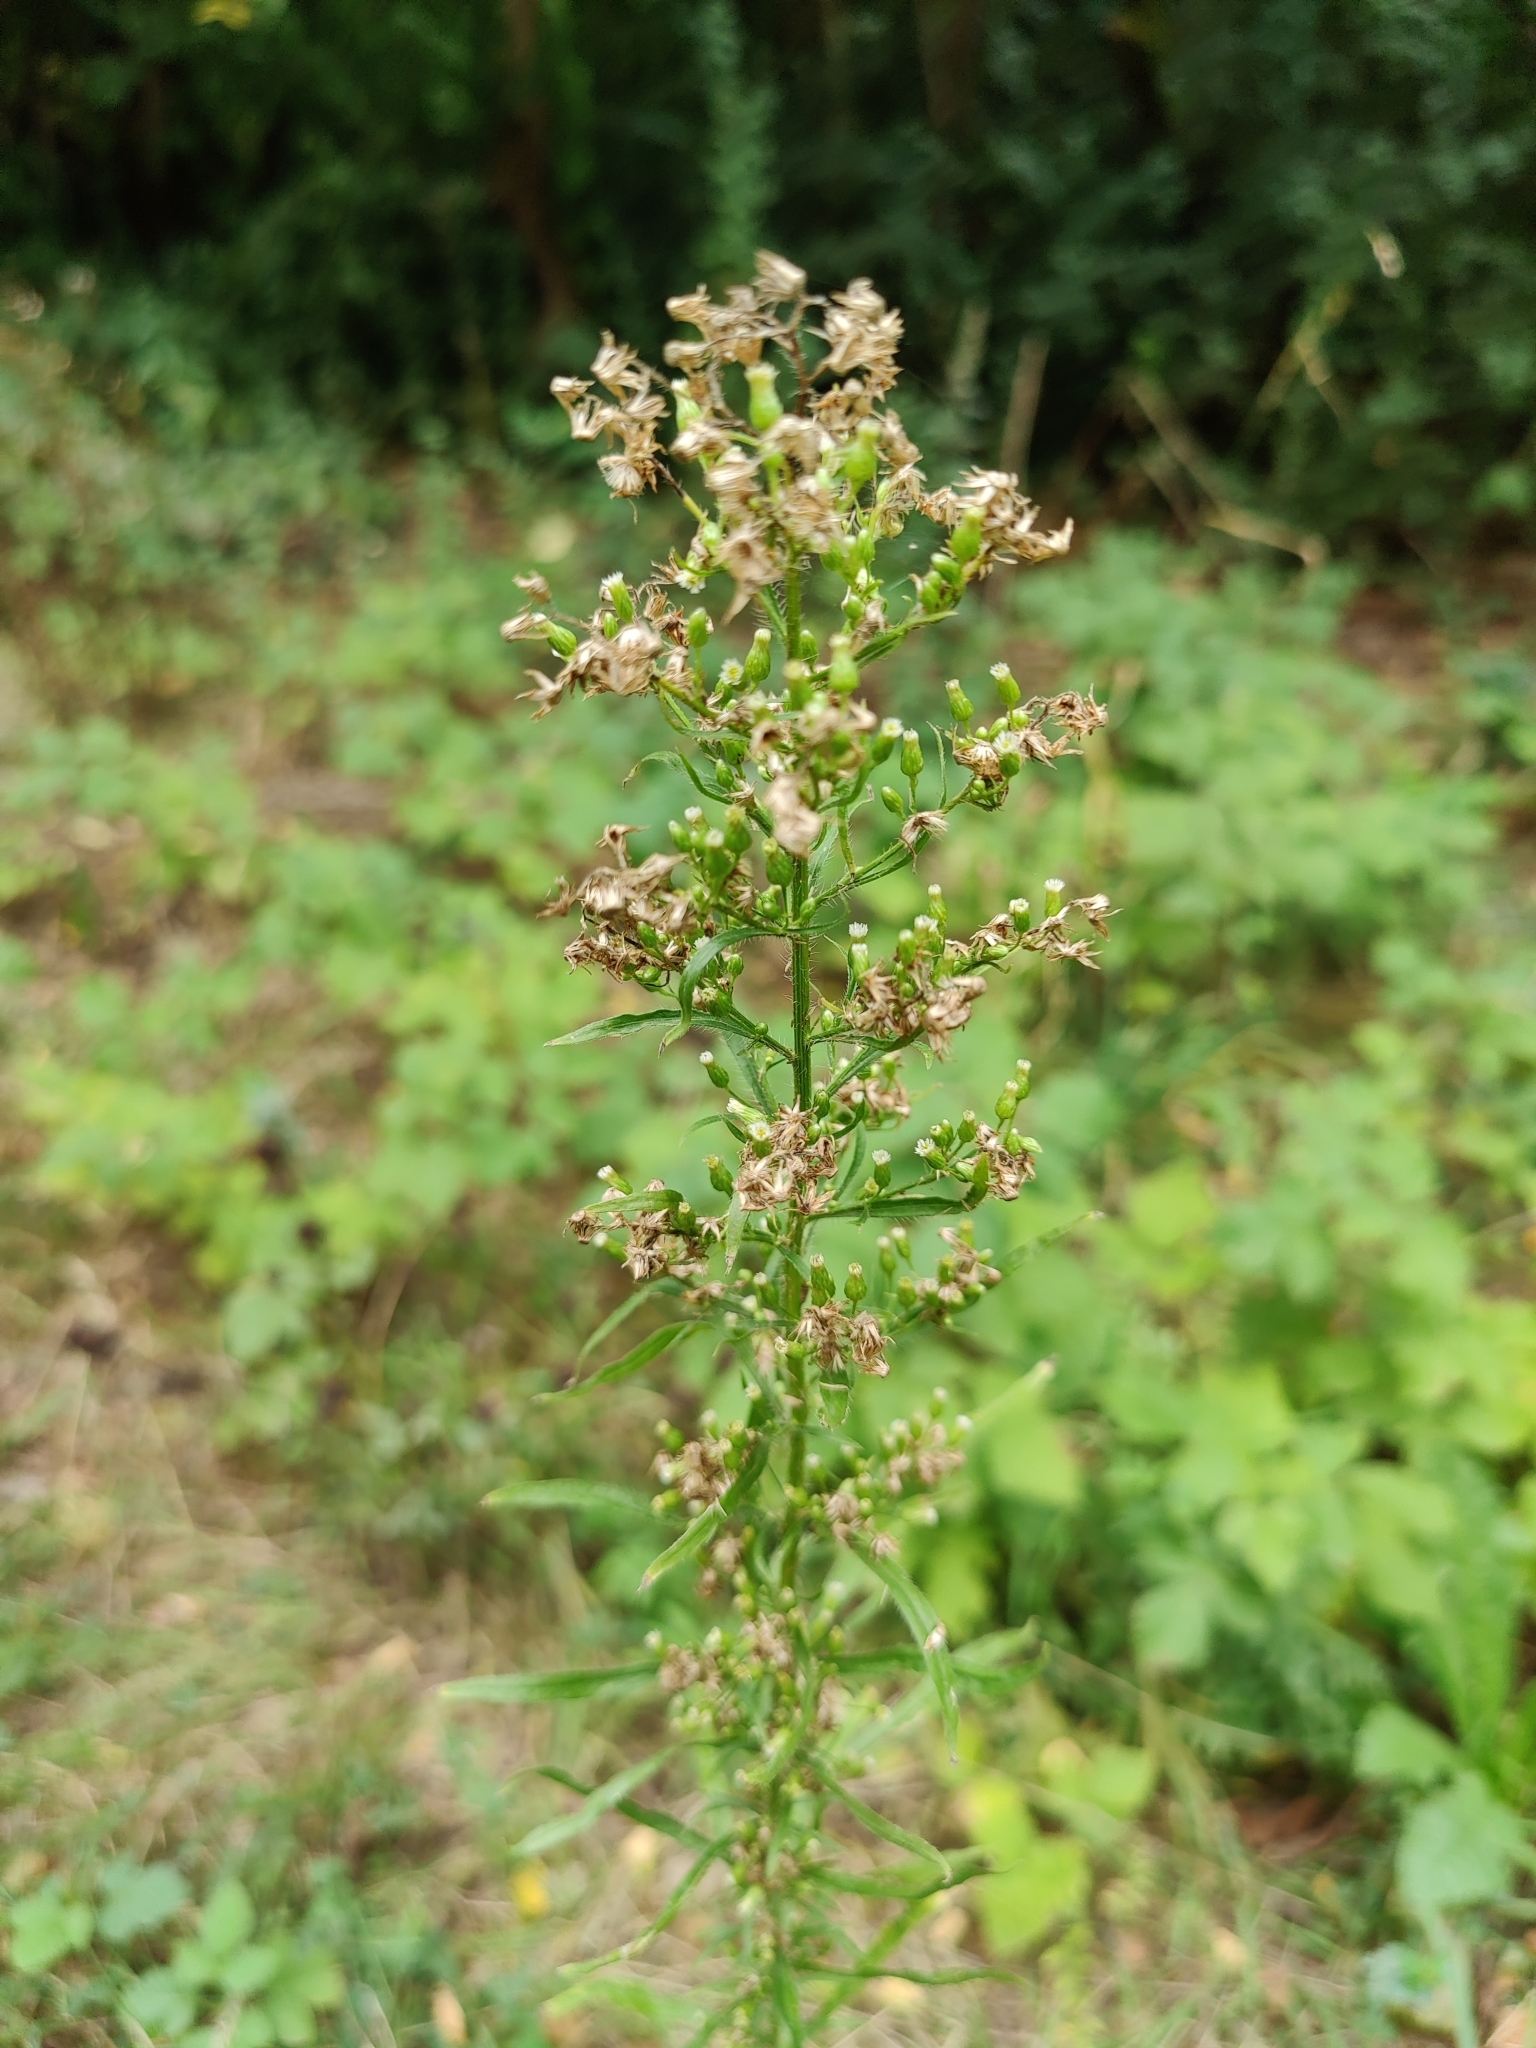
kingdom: Plantae
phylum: Tracheophyta
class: Magnoliopsida
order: Asterales
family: Asteraceae
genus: Erigeron
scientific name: Erigeron canadensis
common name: Canadian fleabane
